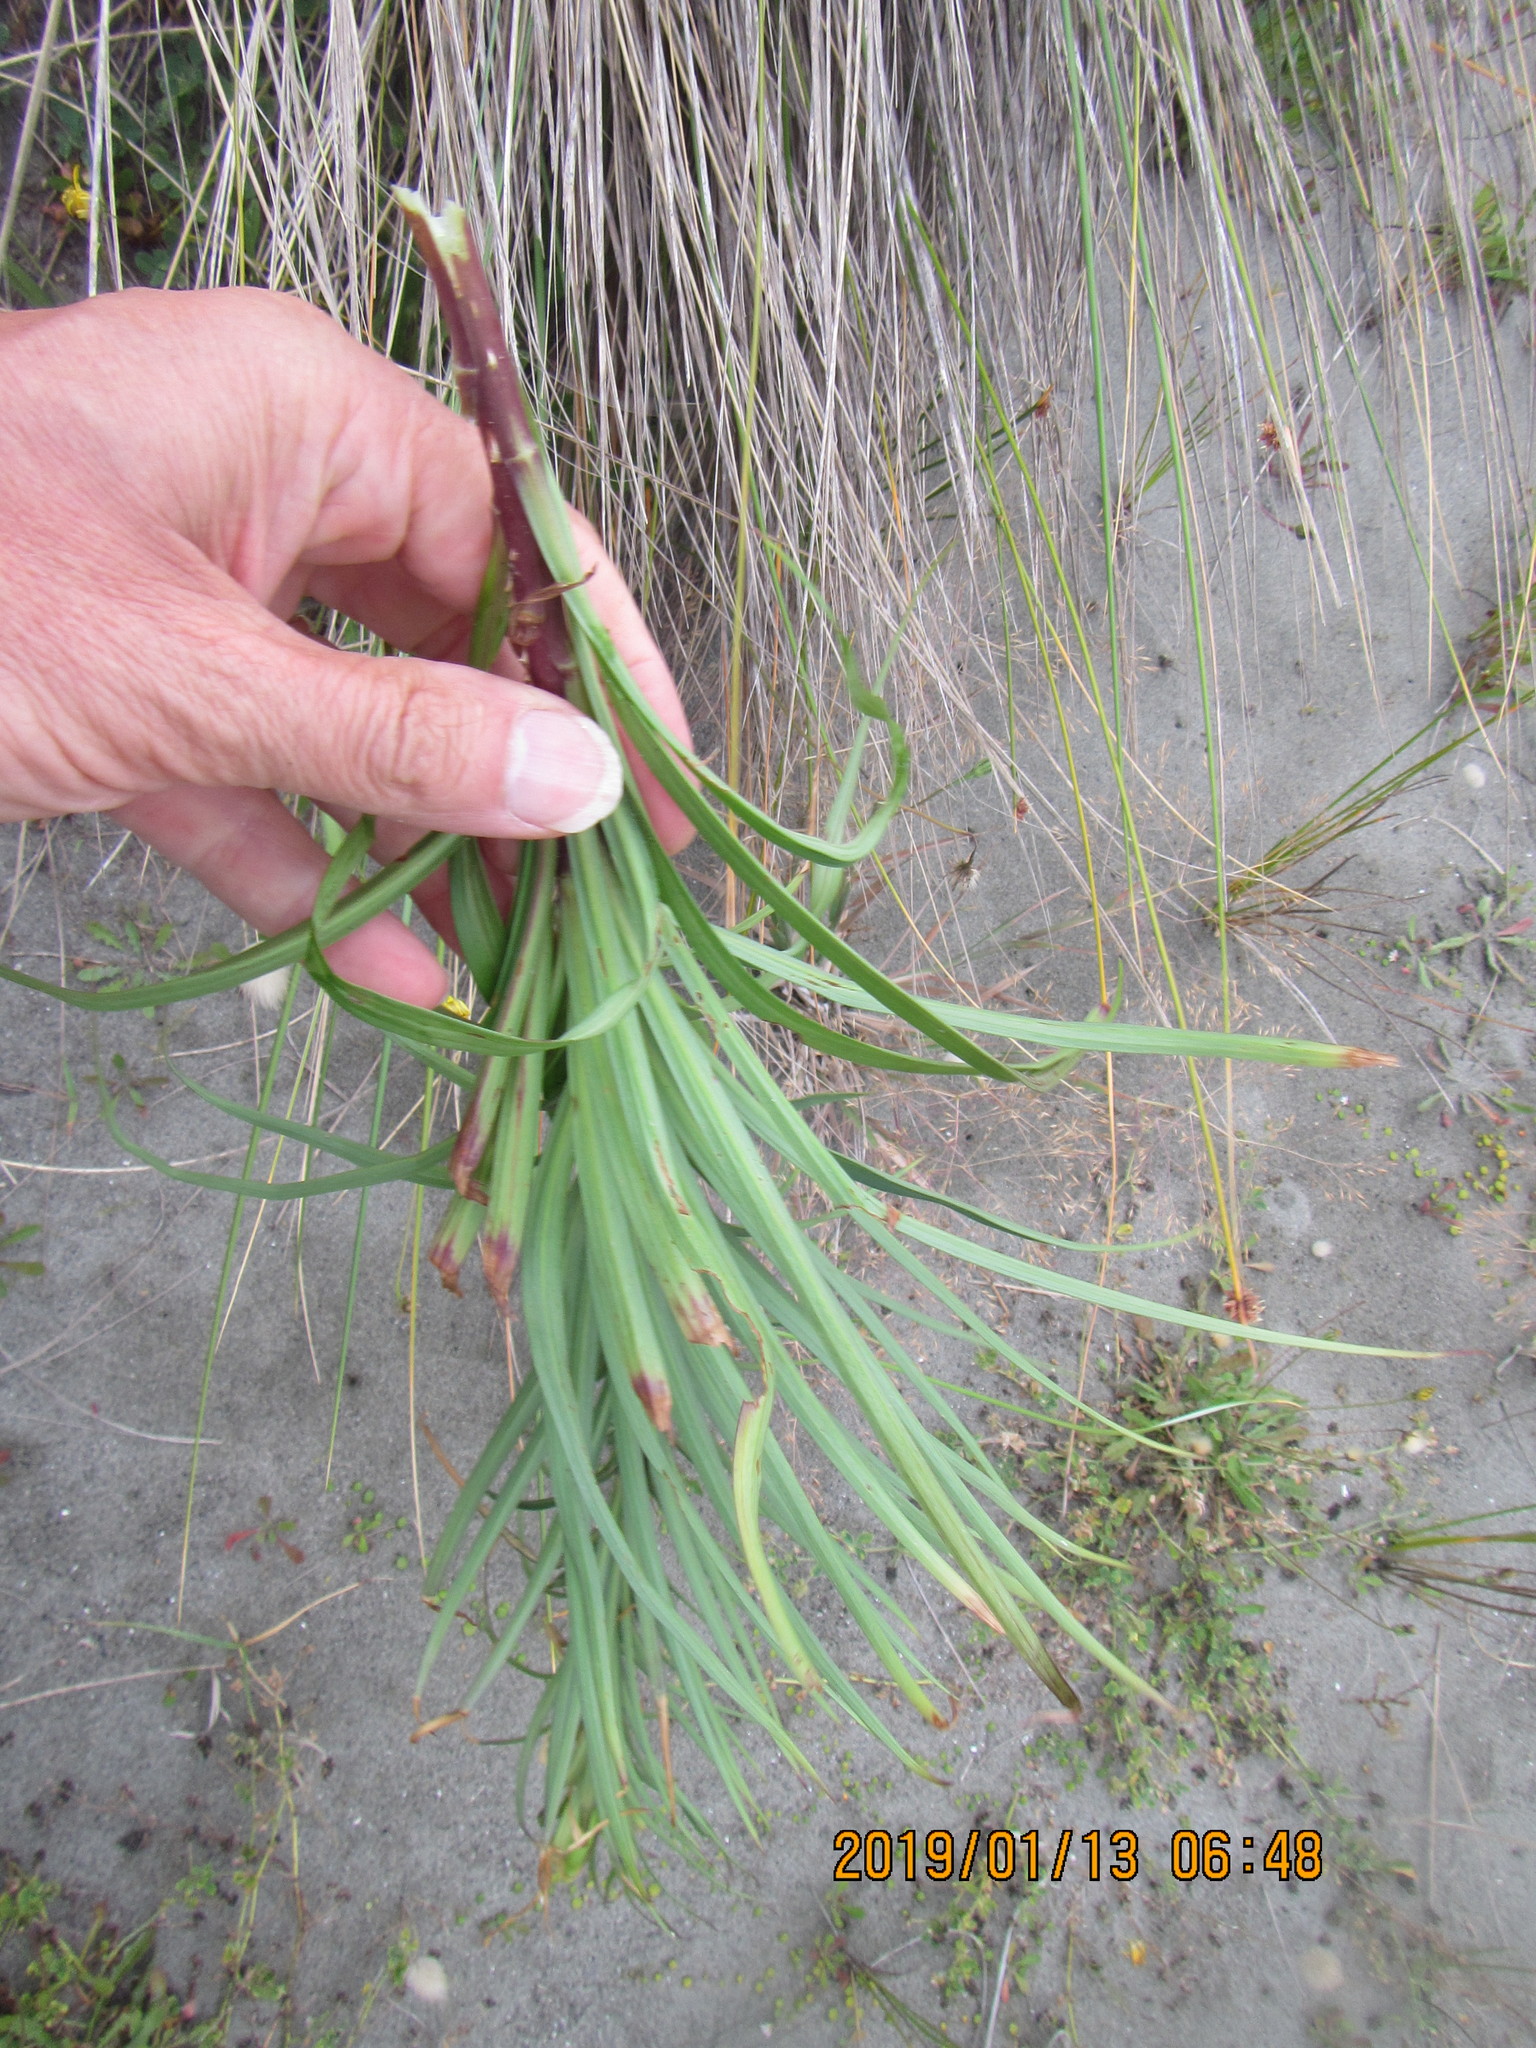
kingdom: Plantae
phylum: Tracheophyta
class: Liliopsida
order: Liliales
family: Liliaceae
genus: Lilium
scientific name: Lilium formosanum
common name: Formosa lily
